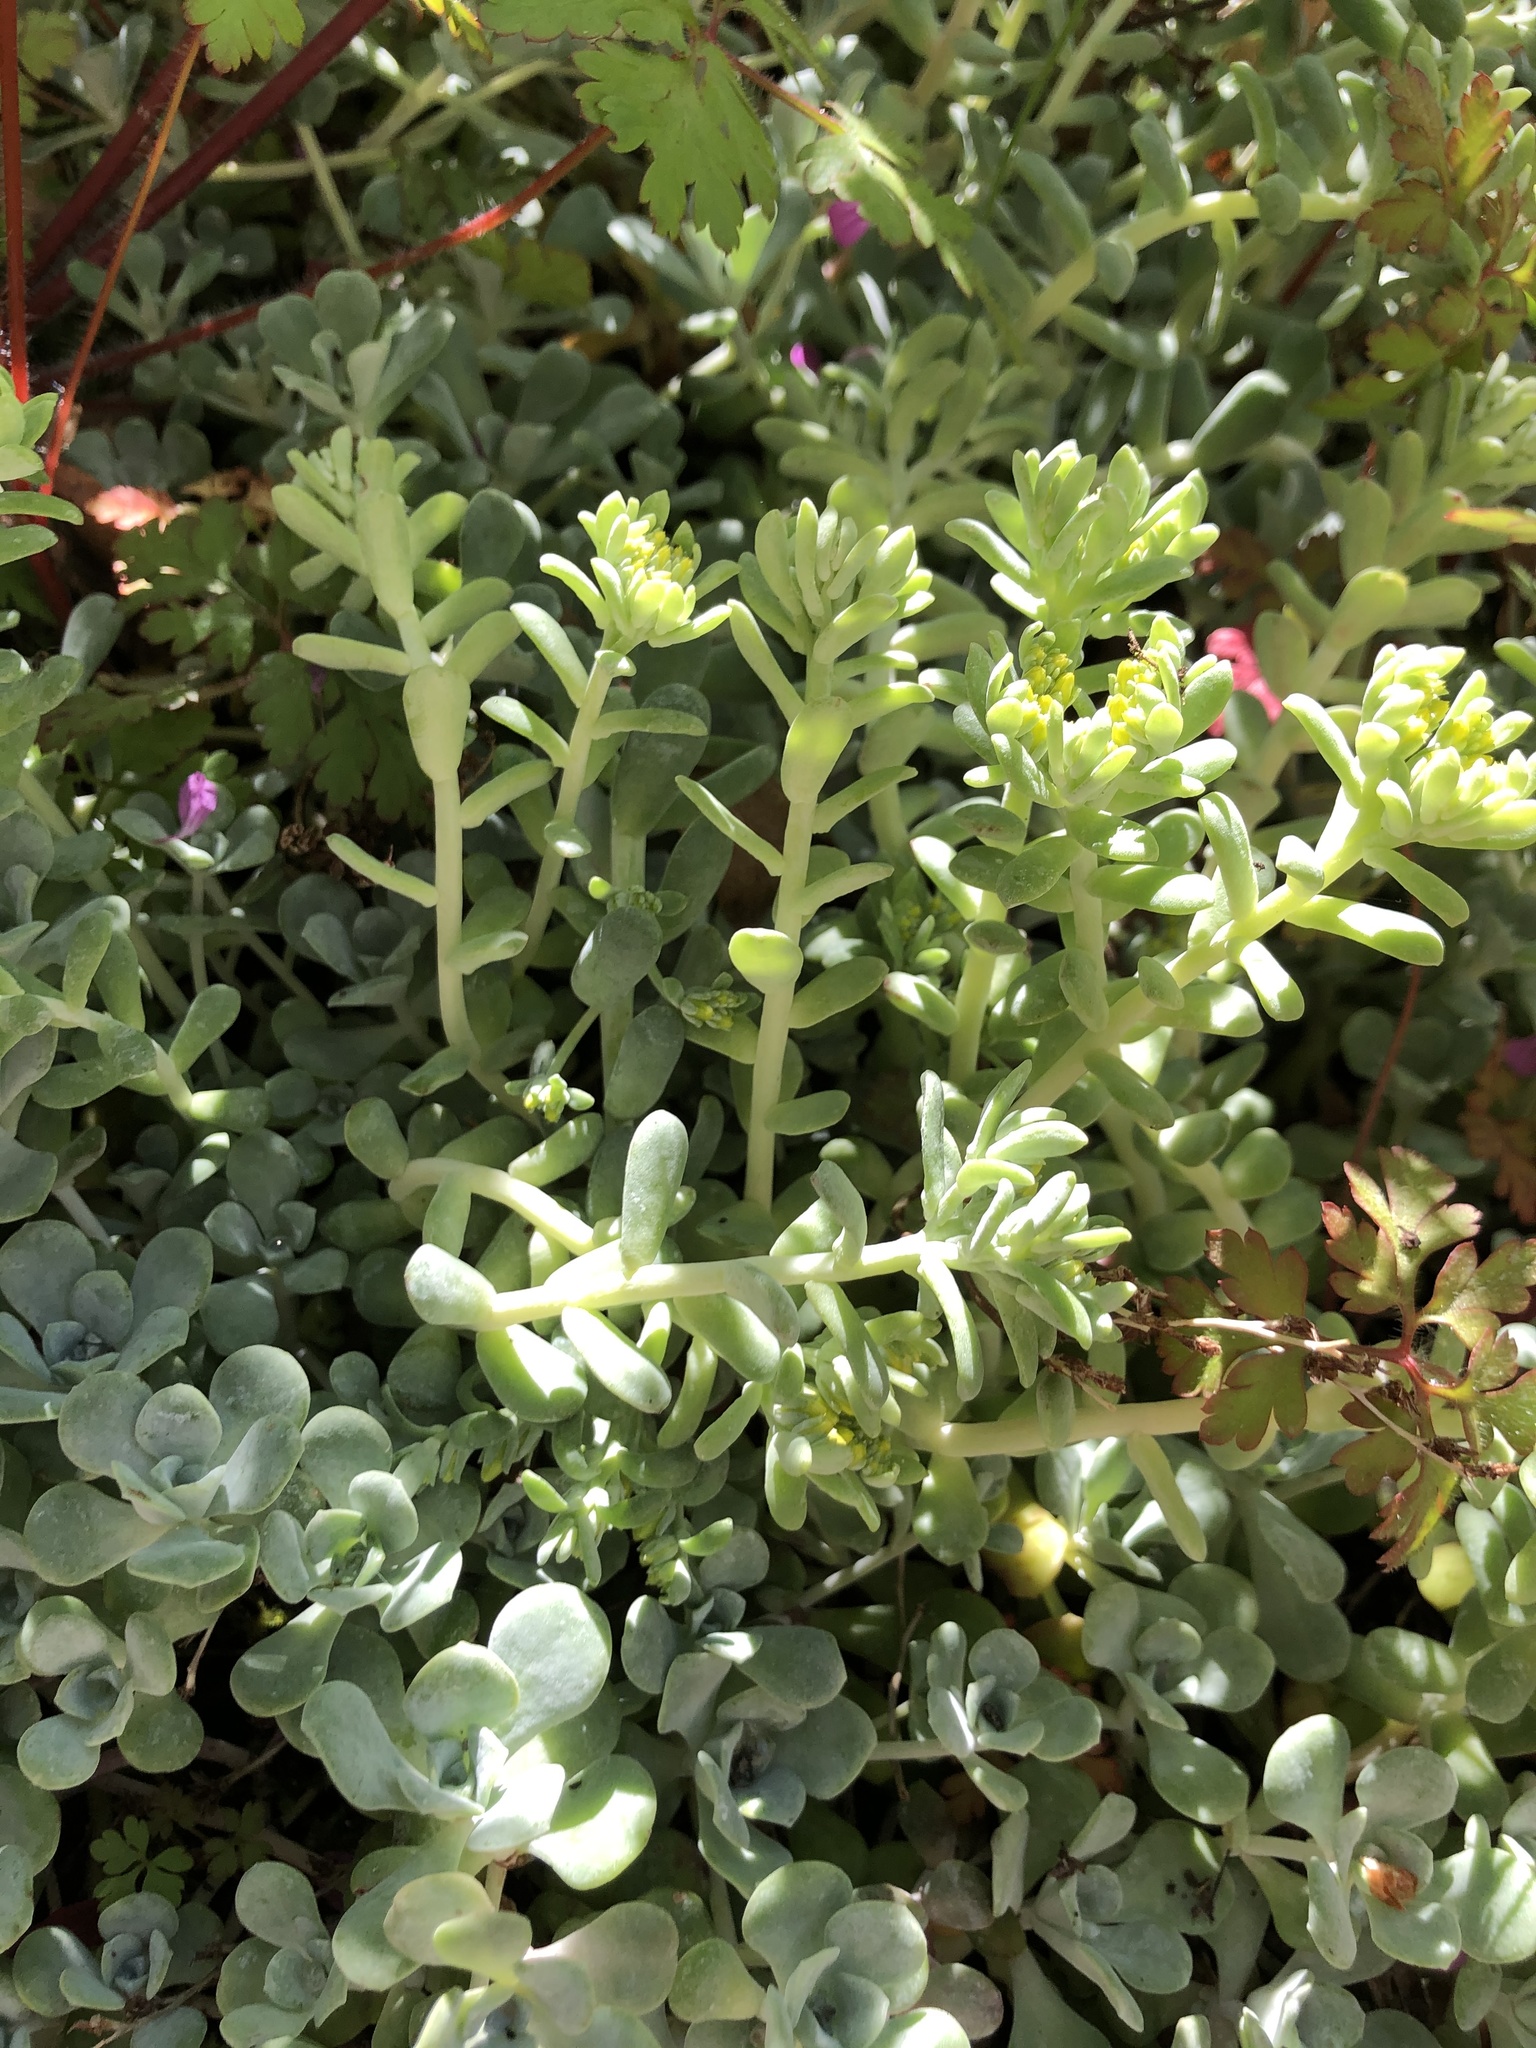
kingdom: Plantae
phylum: Tracheophyta
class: Magnoliopsida
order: Saxifragales
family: Crassulaceae
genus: Sedum
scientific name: Sedum spathulifolium
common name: Colorado stonecrop
